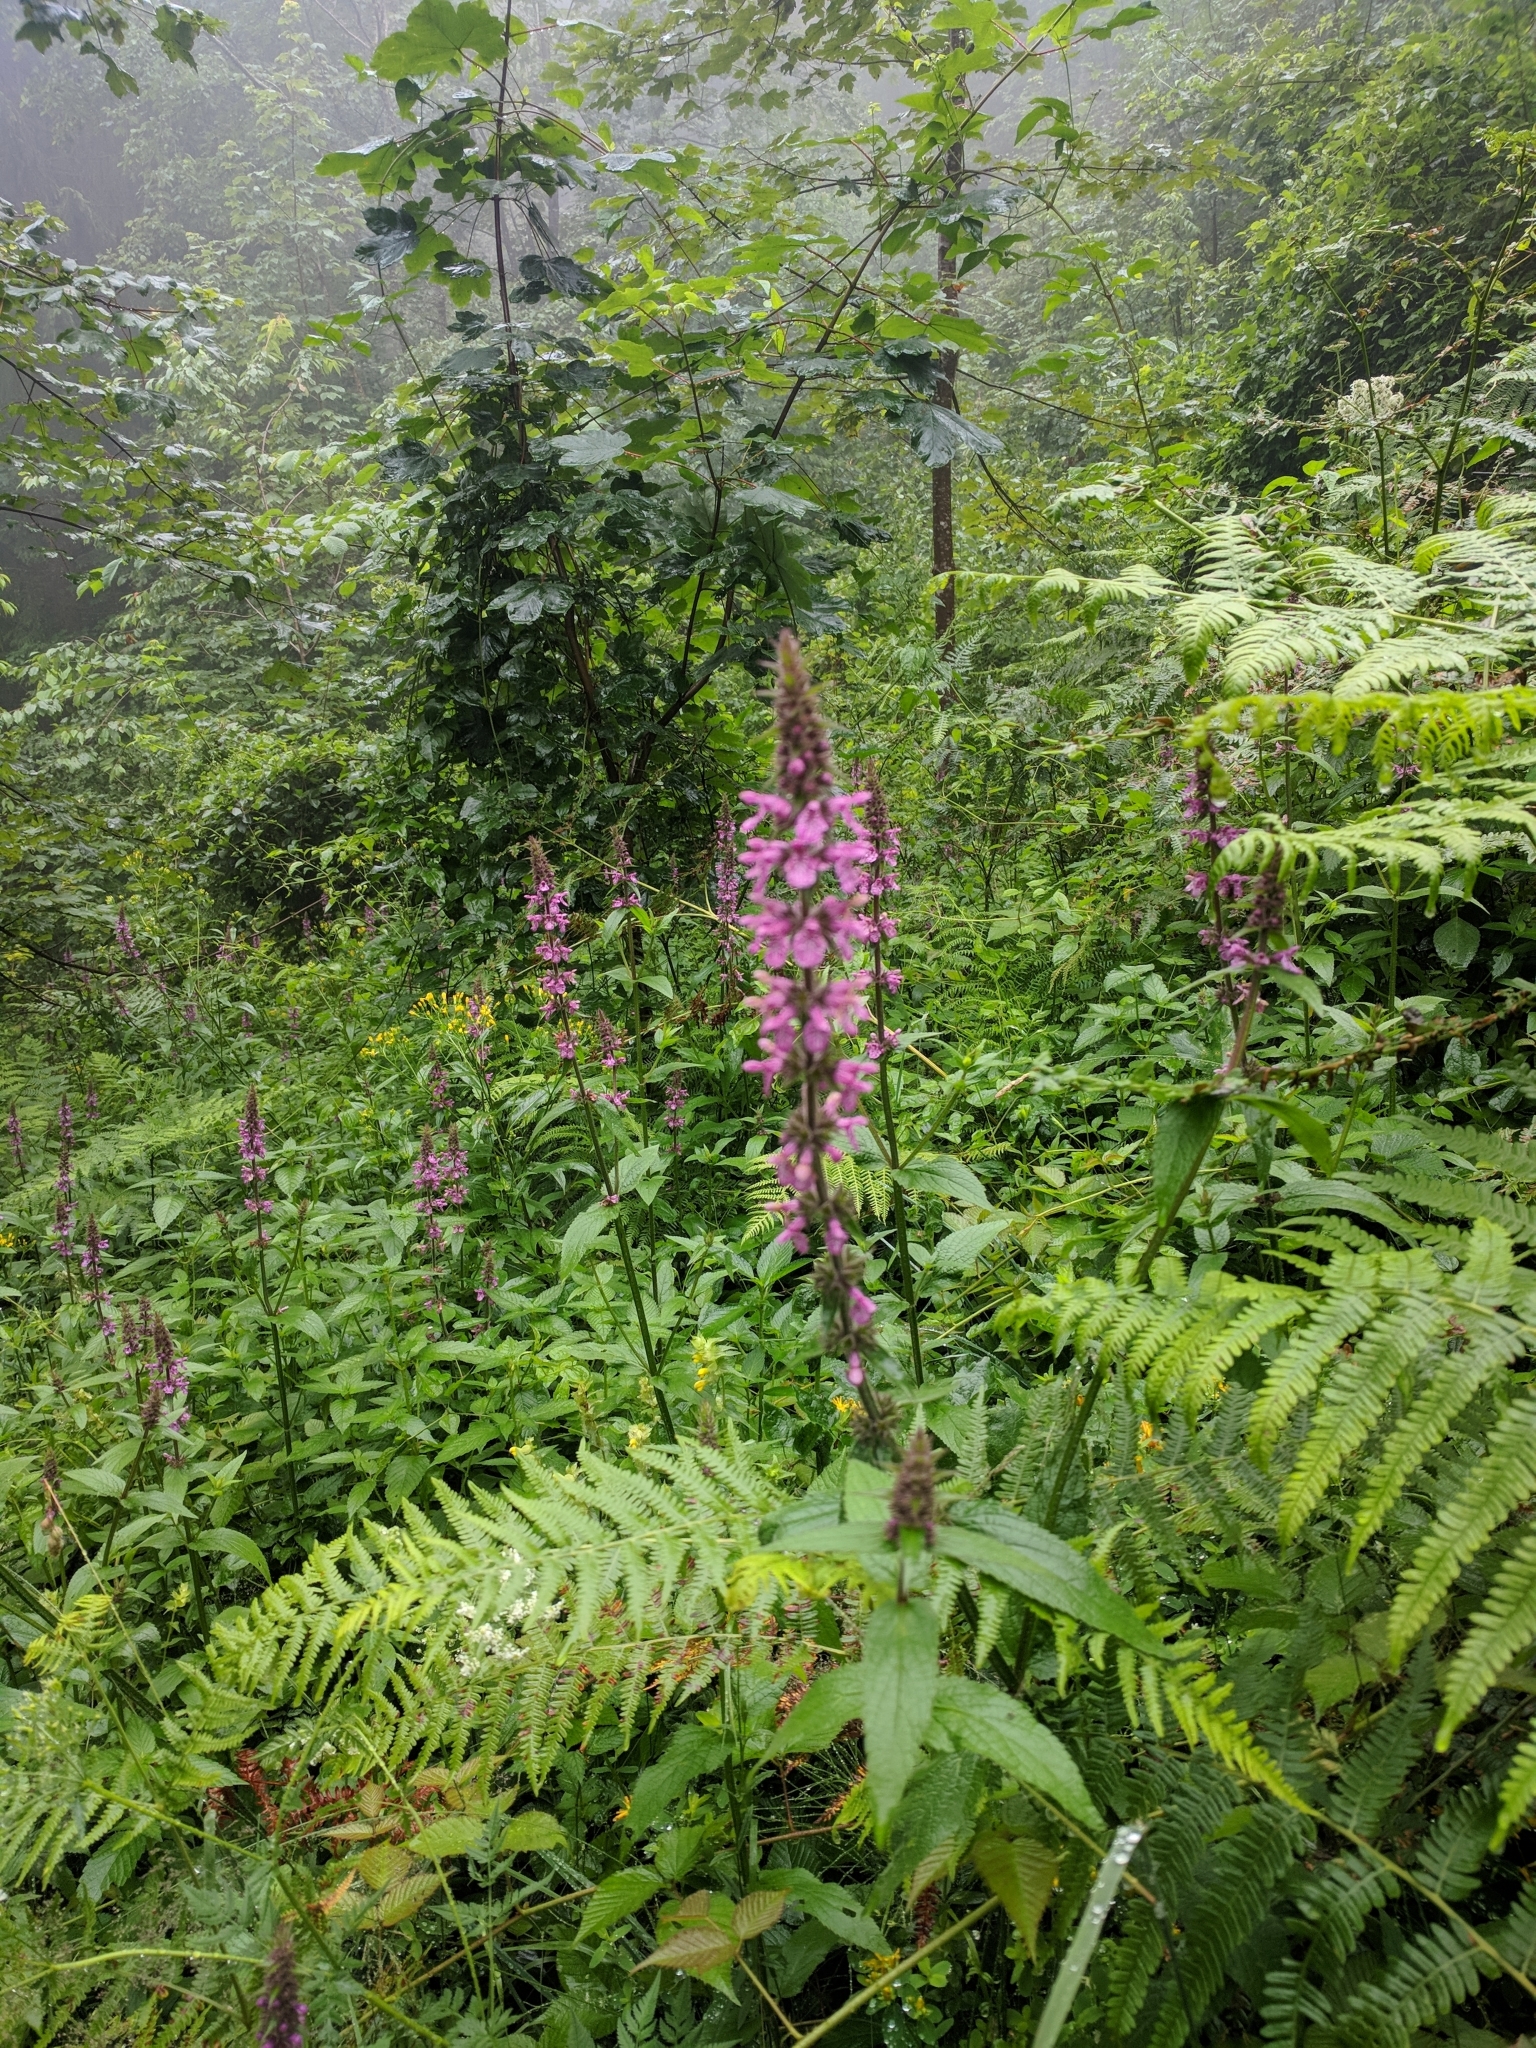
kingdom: Plantae
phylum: Tracheophyta
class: Magnoliopsida
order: Lamiales
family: Lamiaceae
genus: Stachys
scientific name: Stachys palustris
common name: Marsh woundwort
